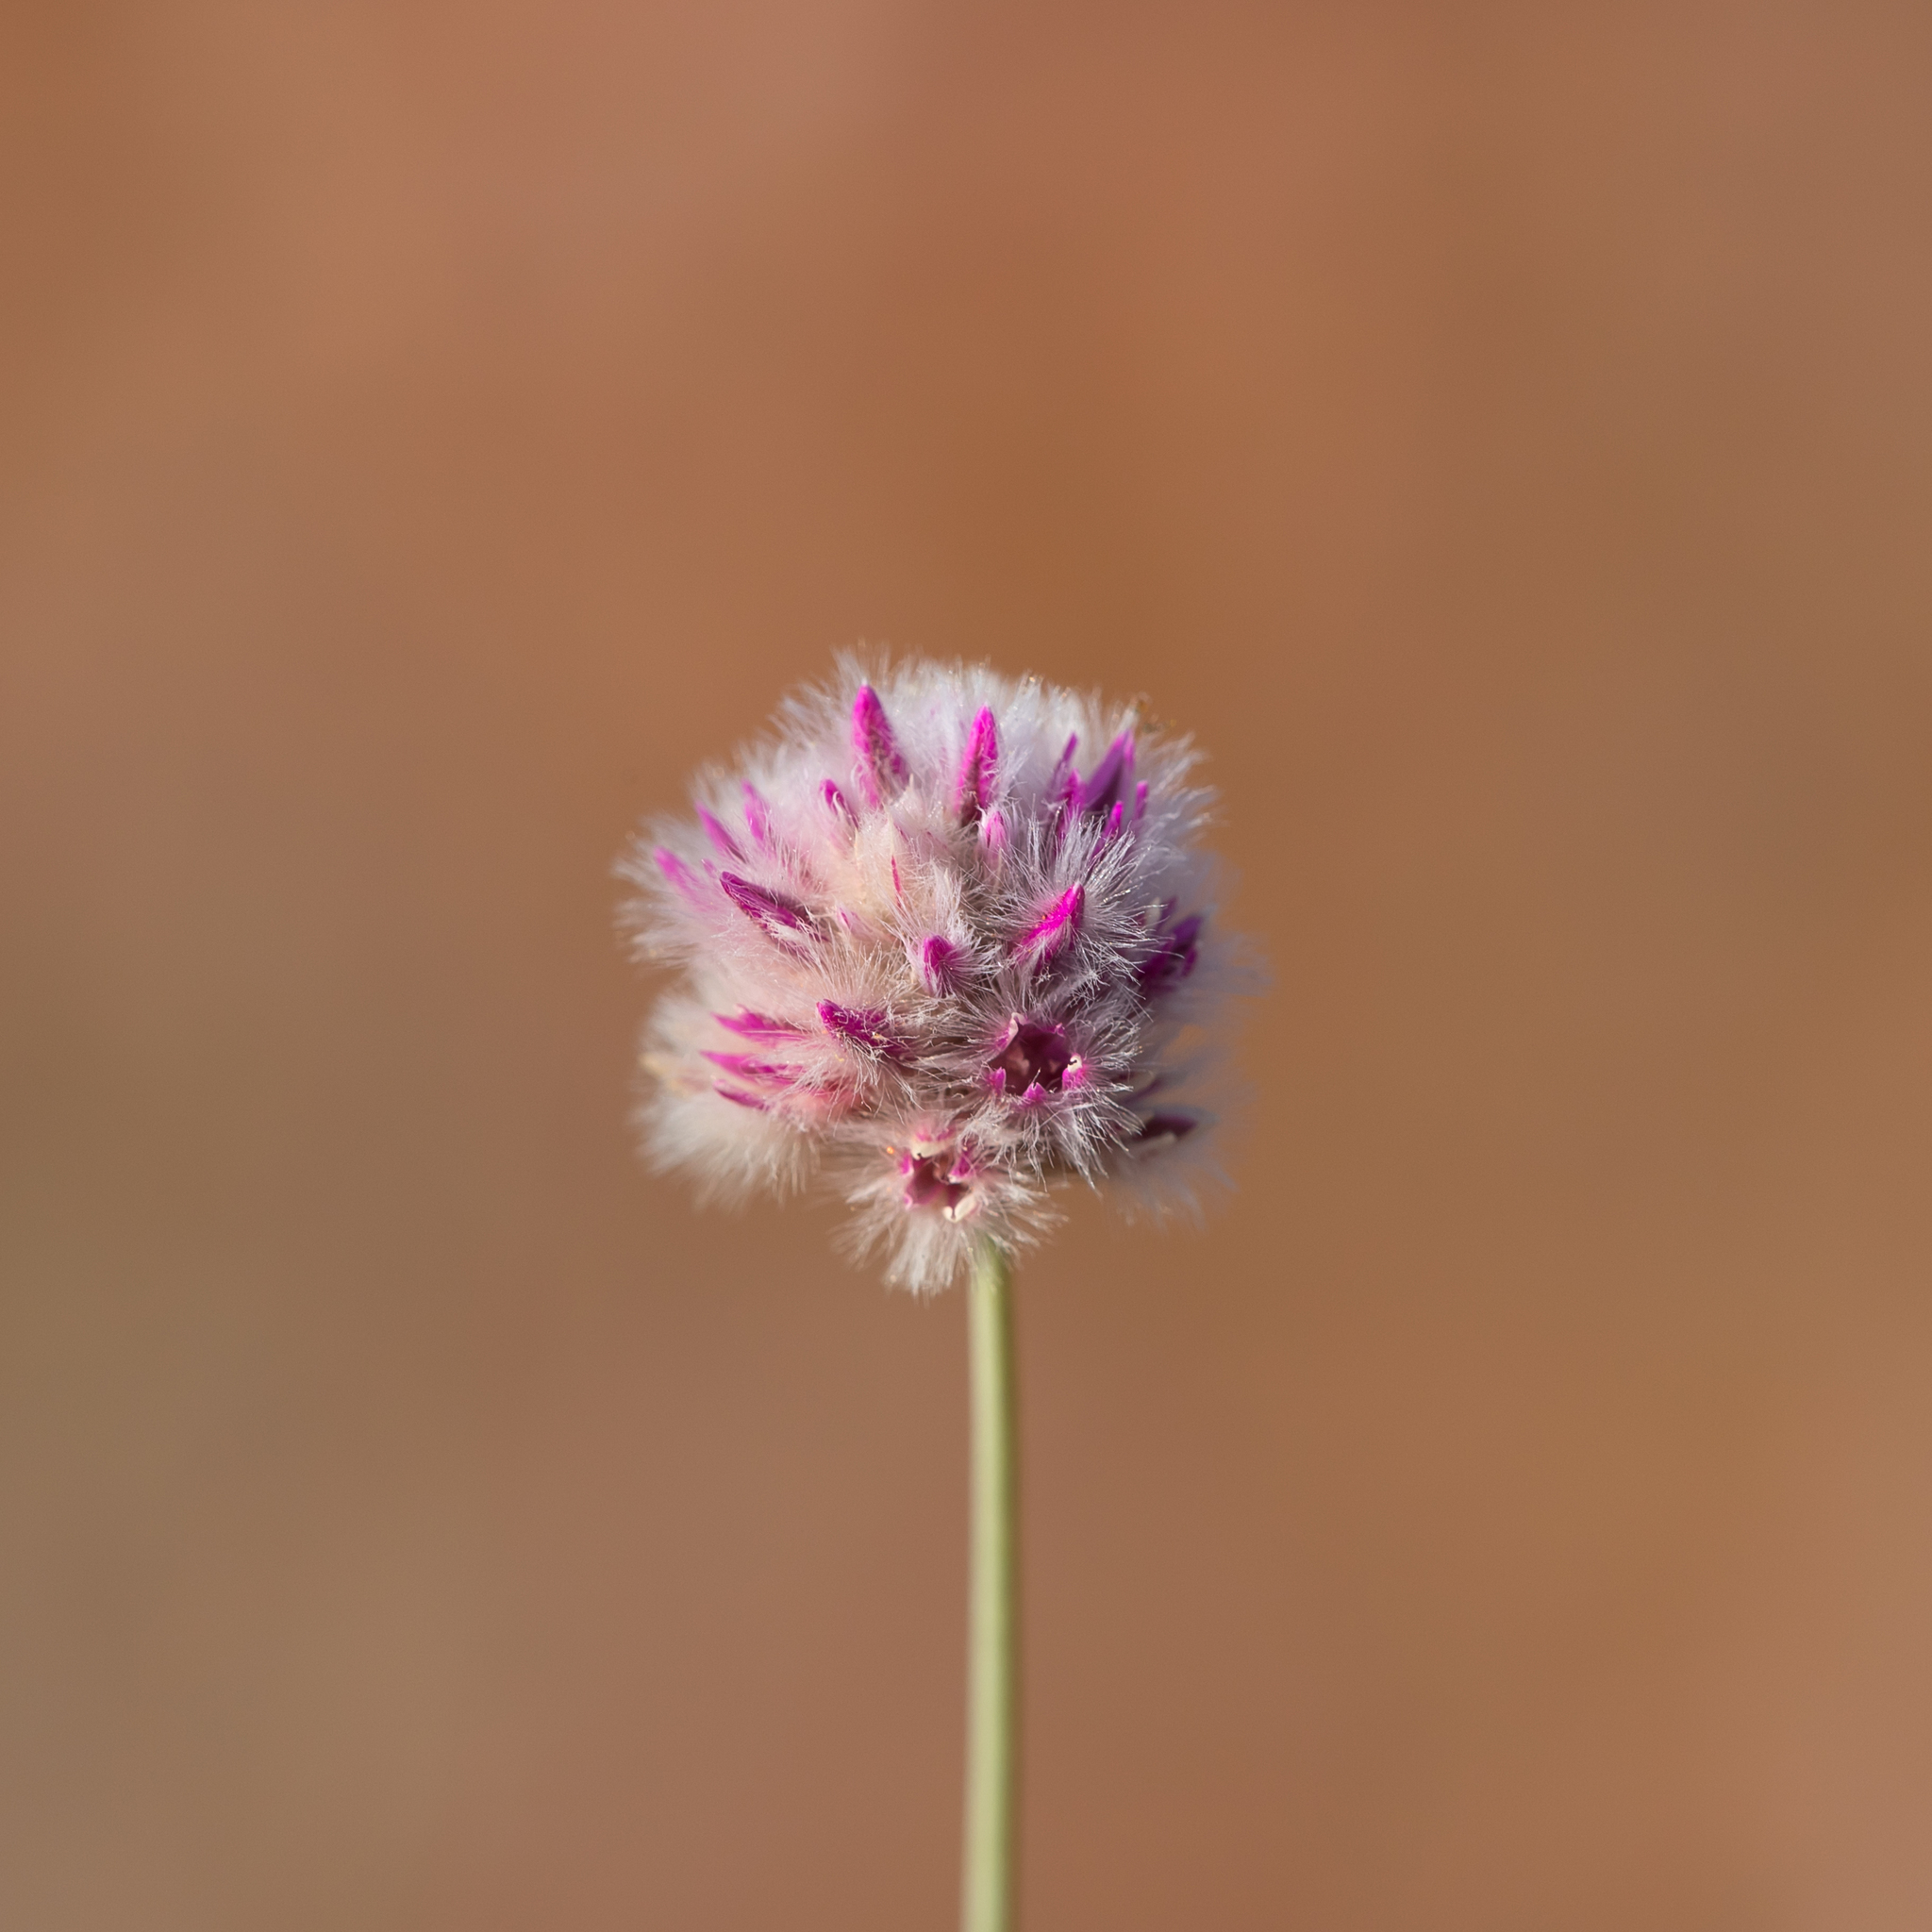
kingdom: Plantae
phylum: Tracheophyta
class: Magnoliopsida
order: Caryophyllales
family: Amaranthaceae
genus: Ptilotus
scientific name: Ptilotus schwartzii
